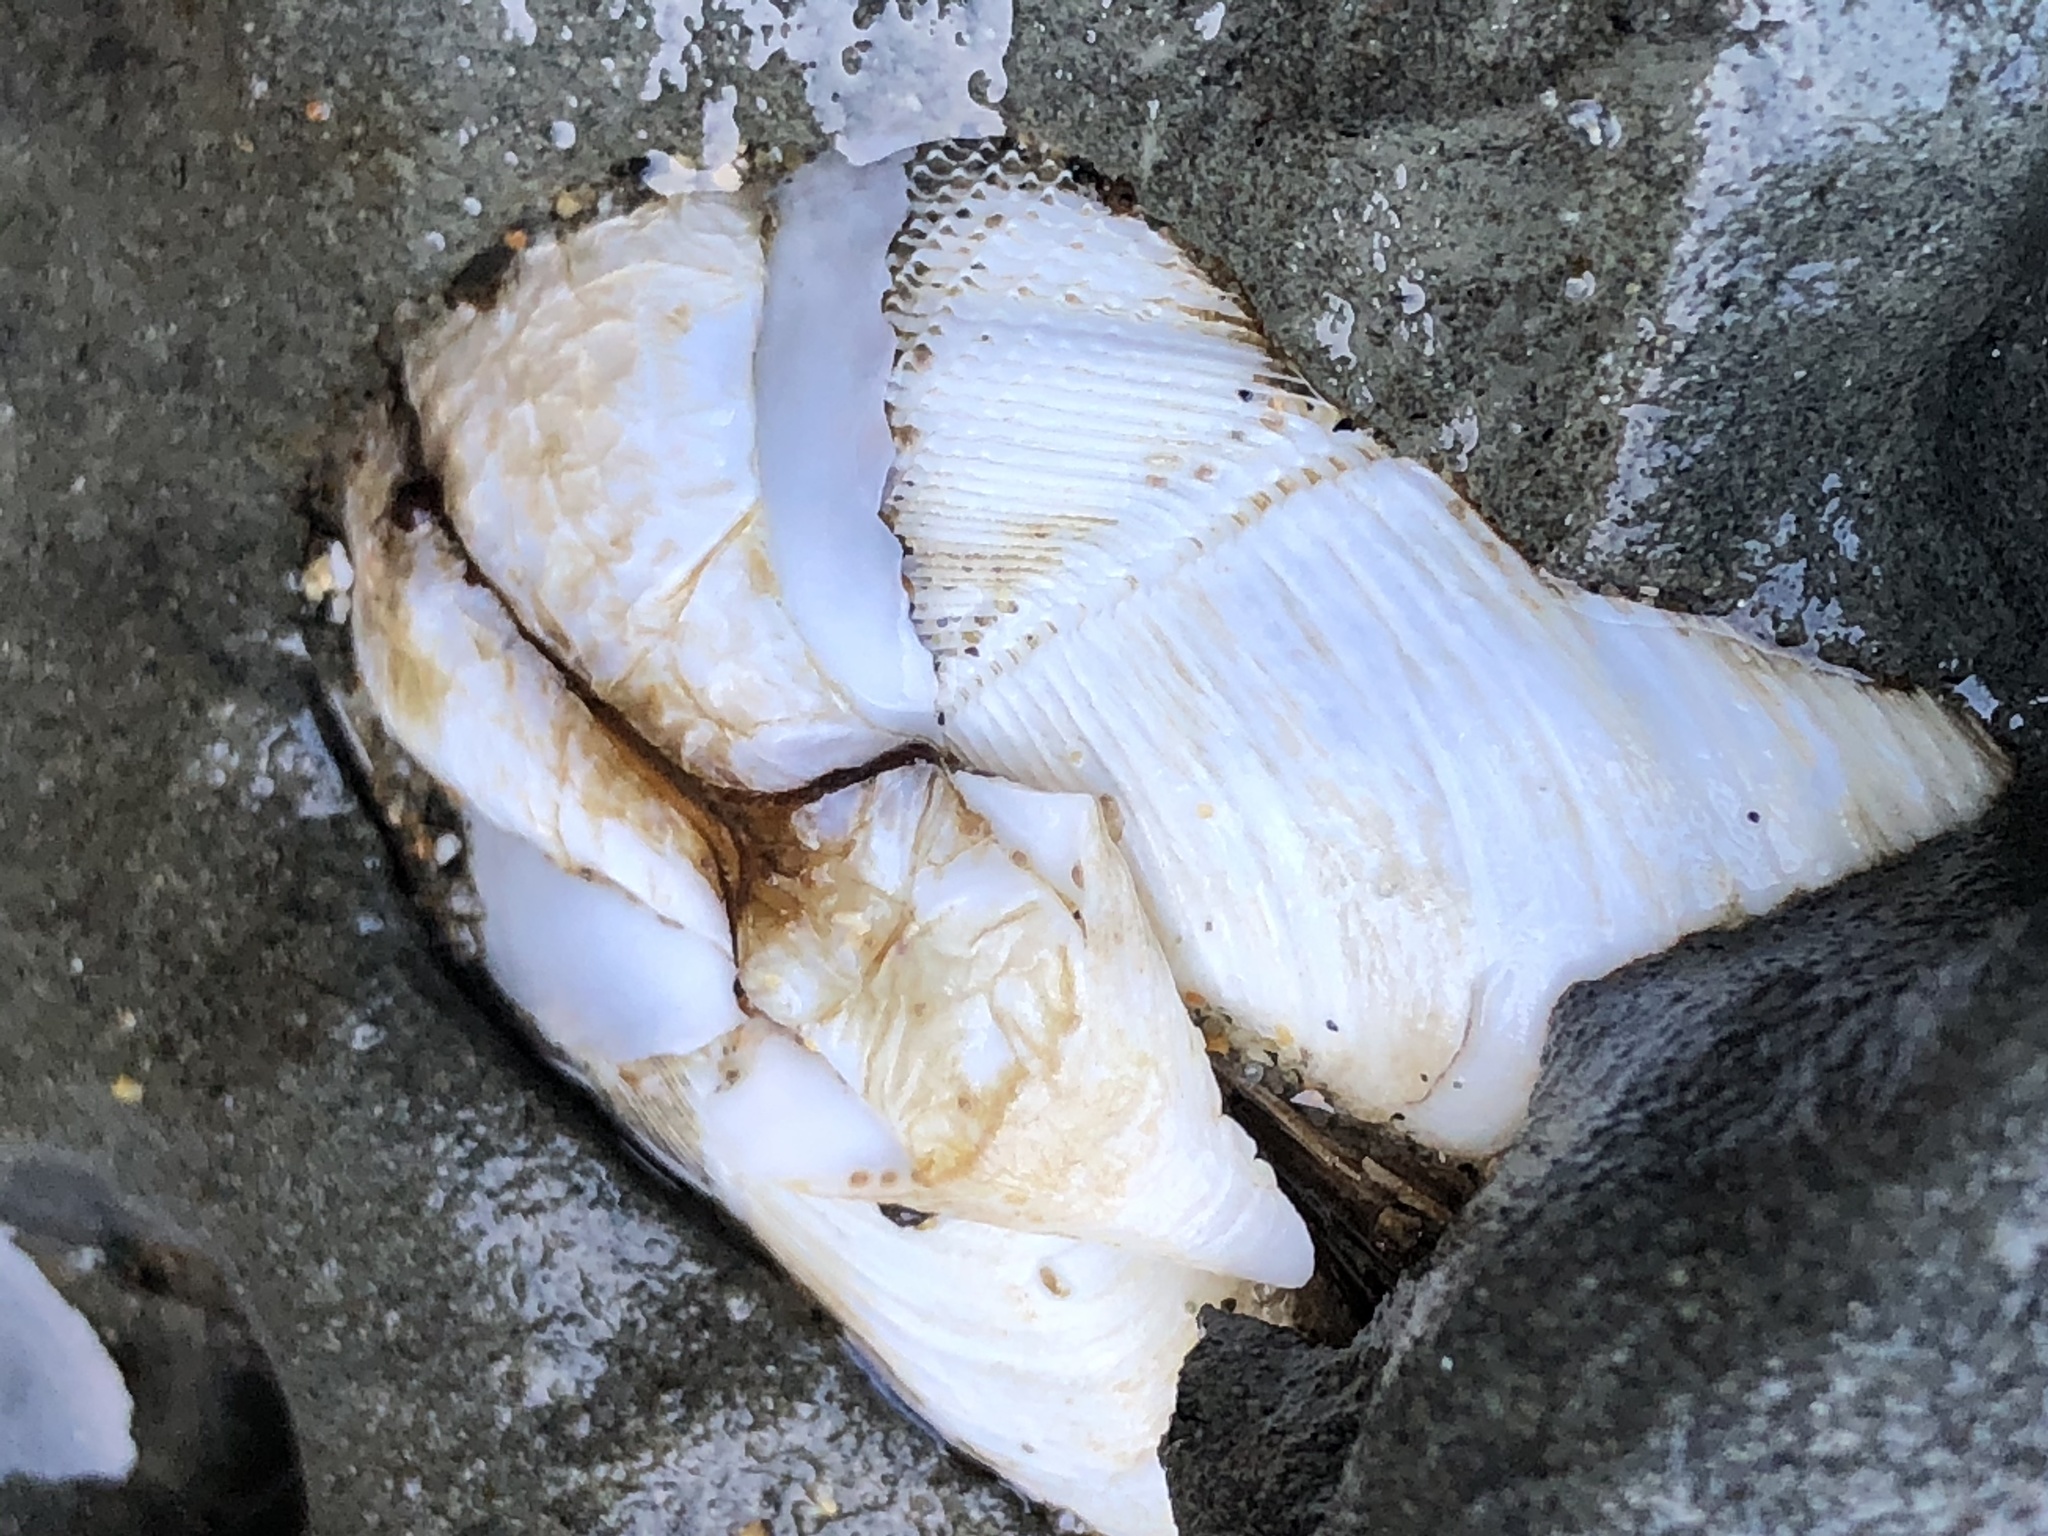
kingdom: Animalia
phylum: Mollusca
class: Bivalvia
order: Myida
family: Pholadidae
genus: Penitella
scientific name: Penitella penita
